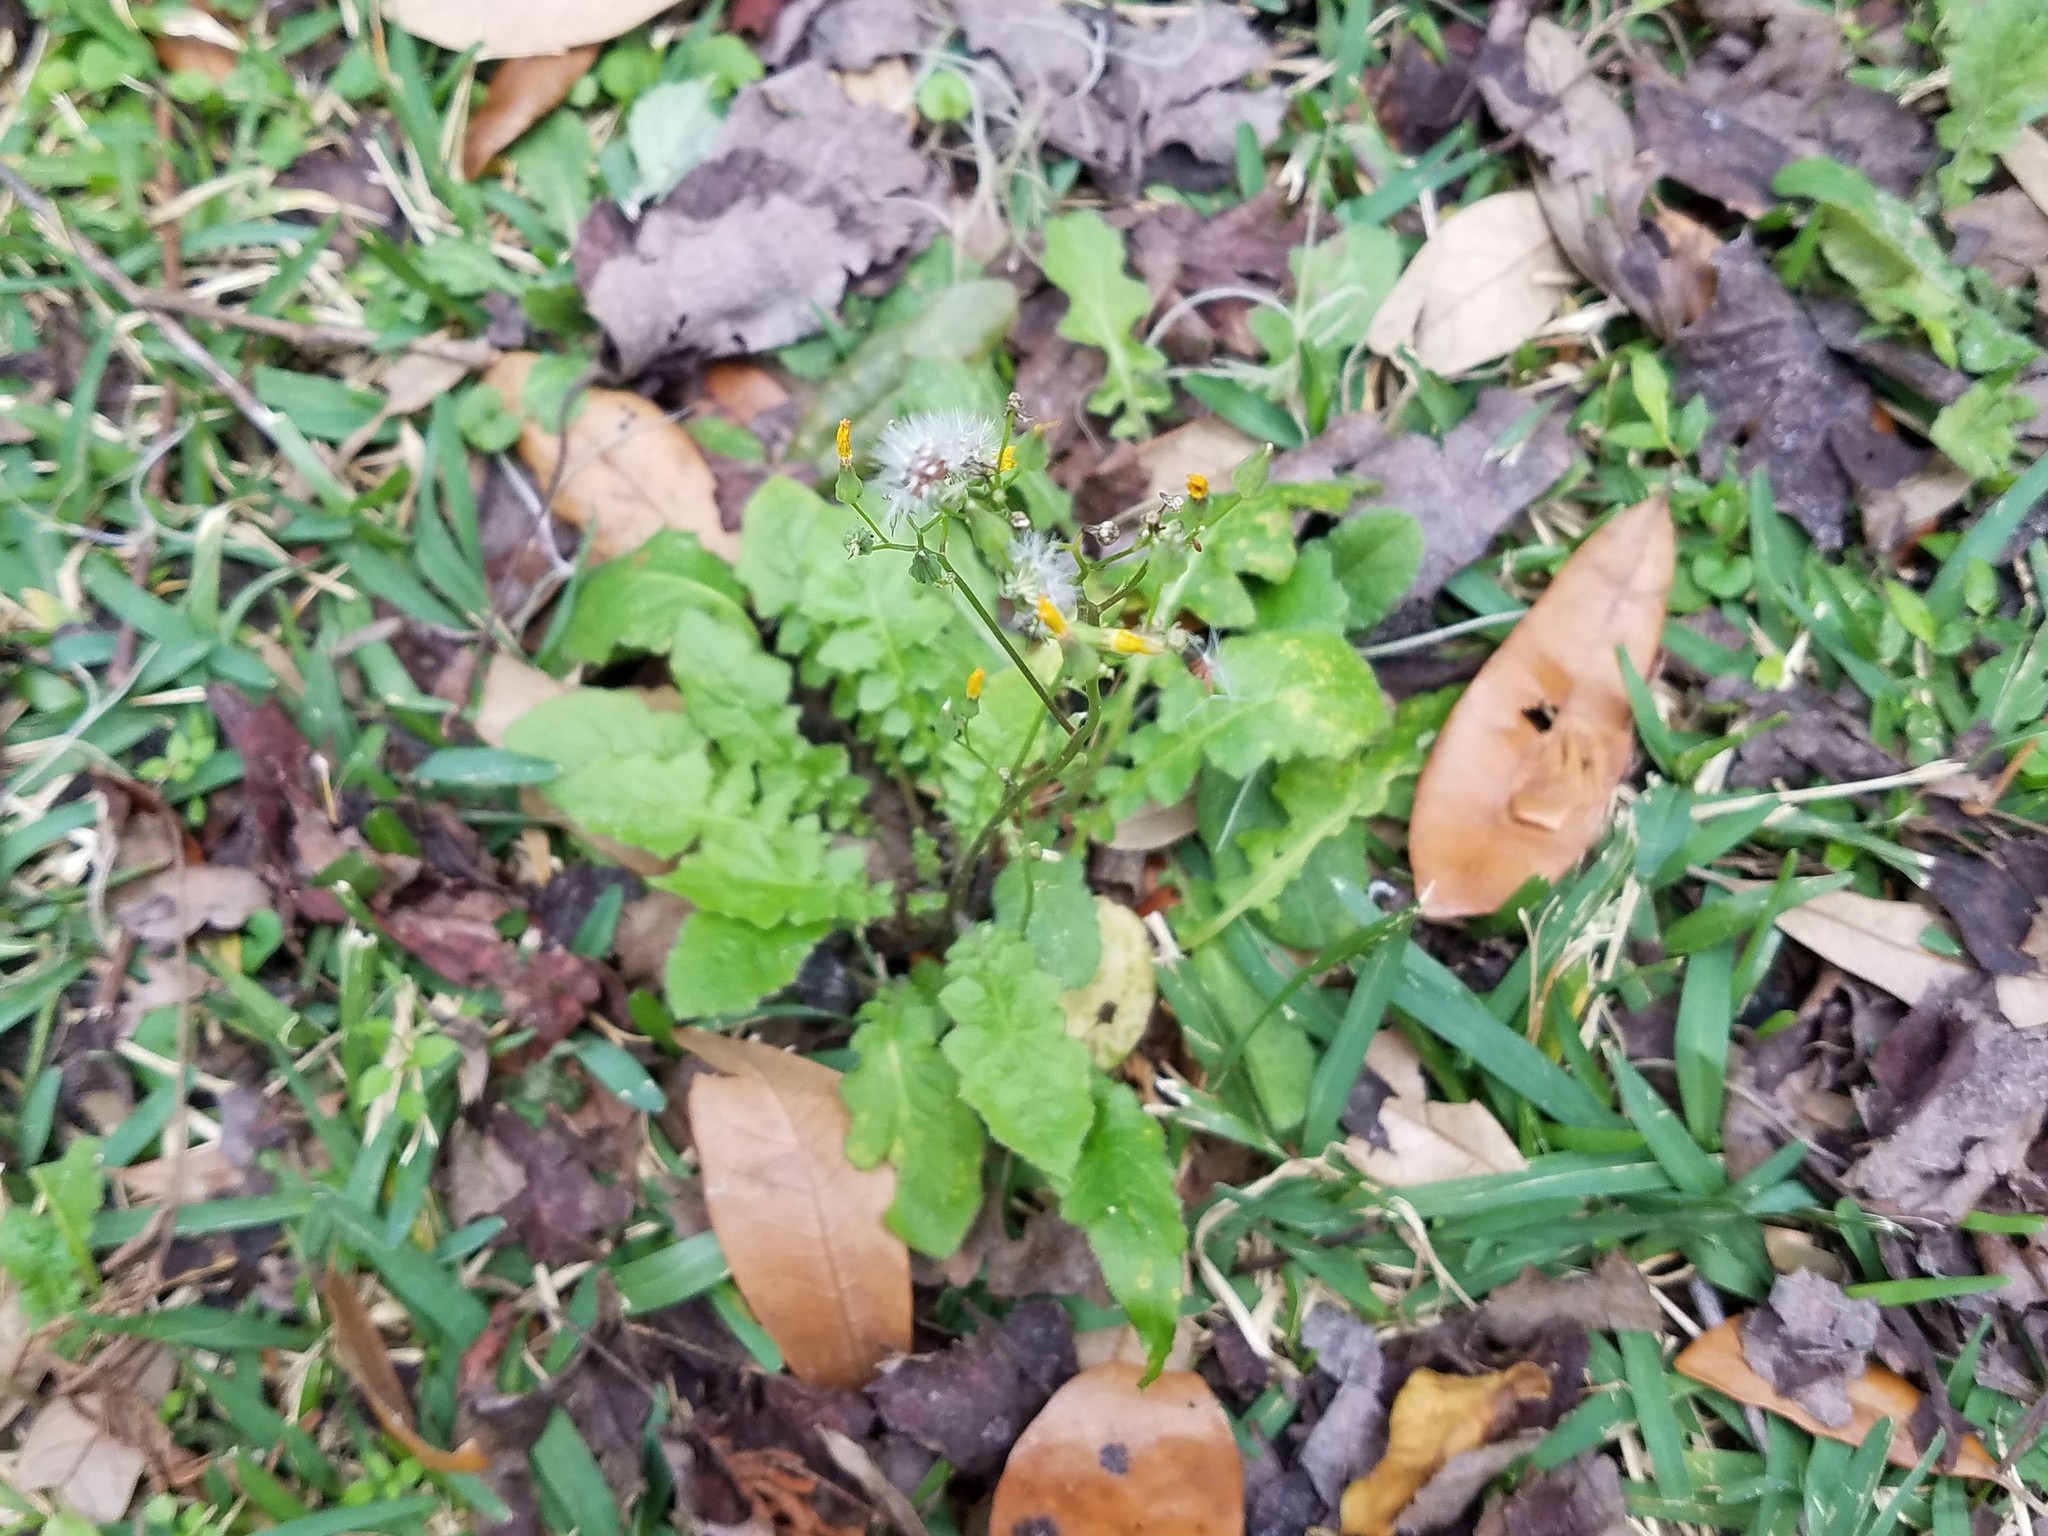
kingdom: Plantae
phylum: Tracheophyta
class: Magnoliopsida
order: Asterales
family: Asteraceae
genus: Youngia
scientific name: Youngia japonica
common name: Oriental false hawksbeard
